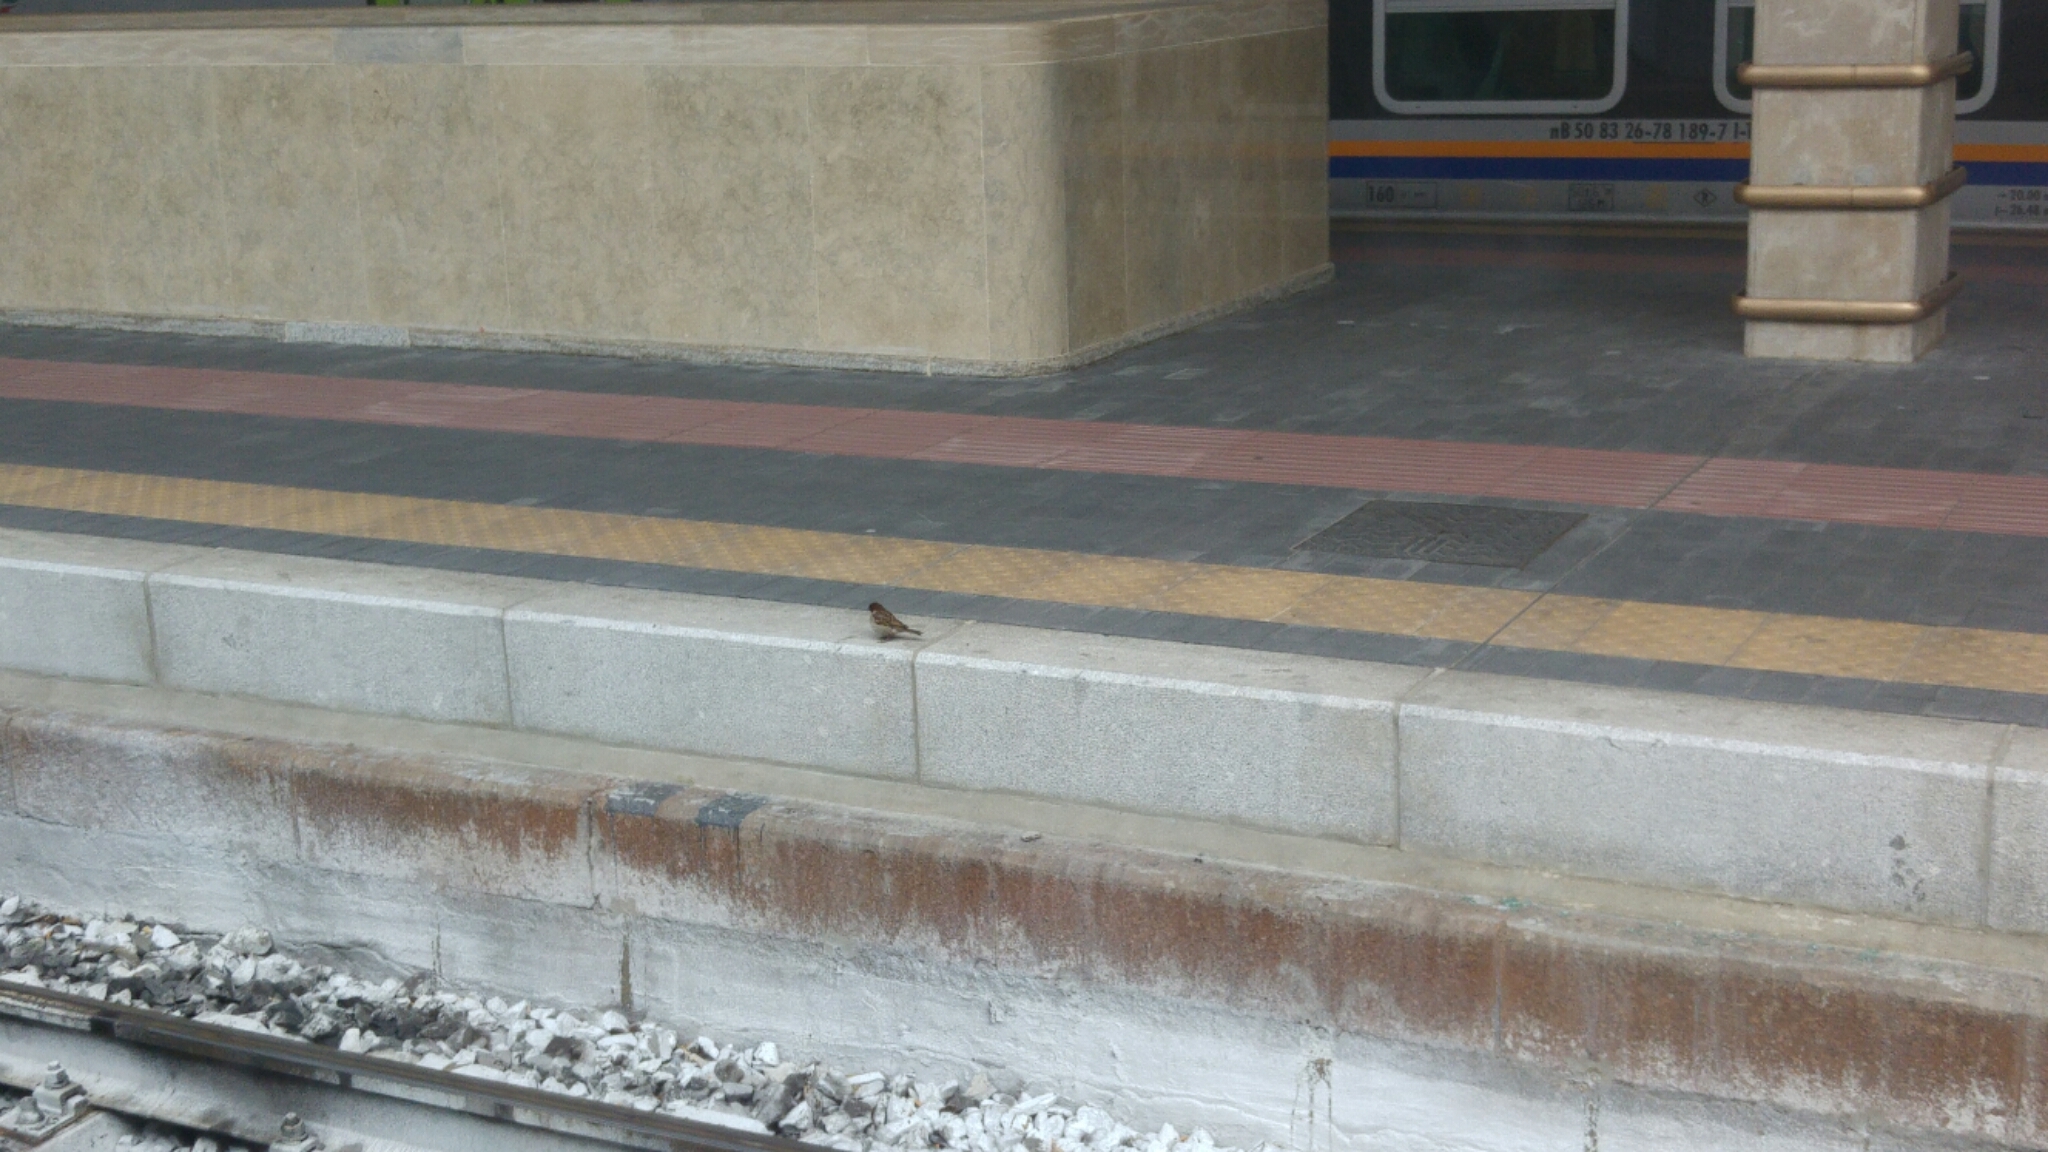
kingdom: Animalia
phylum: Chordata
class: Aves
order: Passeriformes
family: Passeridae
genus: Passer
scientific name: Passer italiae
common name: Italian sparrow
